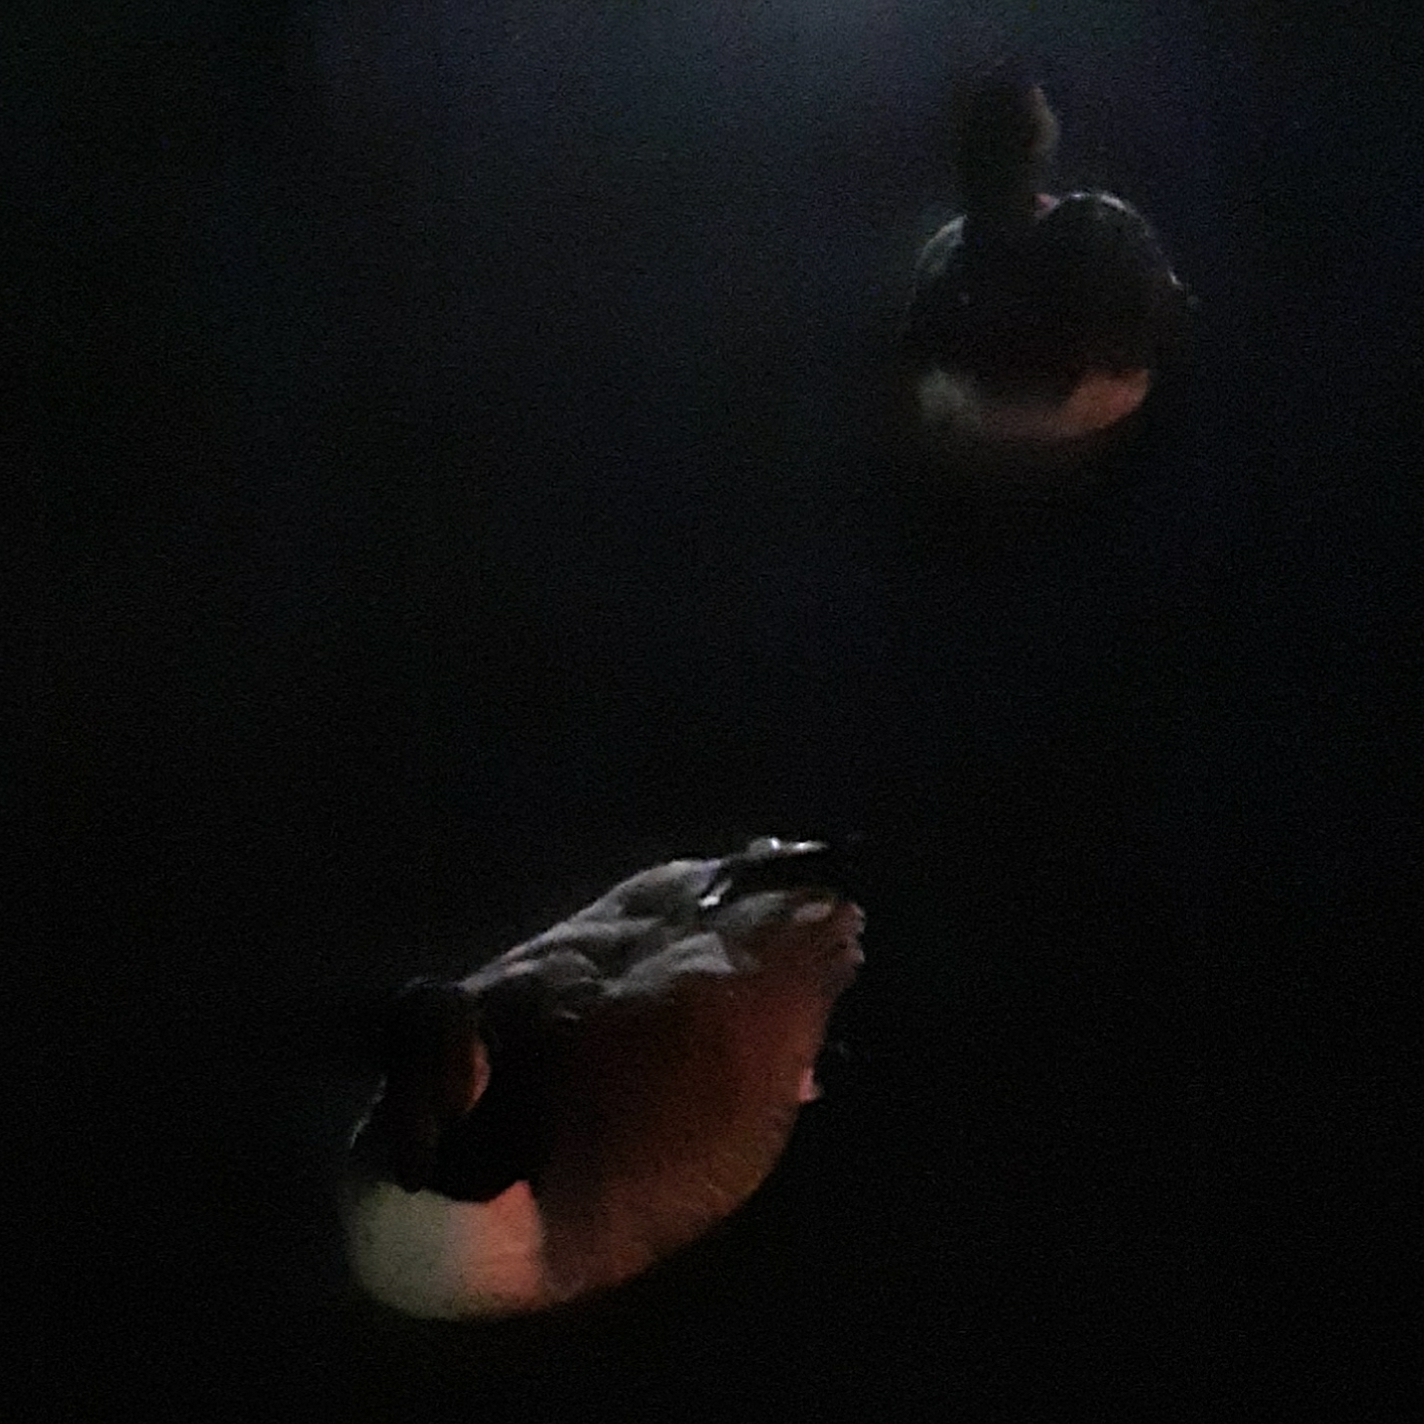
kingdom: Animalia
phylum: Chordata
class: Aves
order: Anseriformes
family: Anatidae
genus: Branta
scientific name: Branta canadensis
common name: Canada goose
